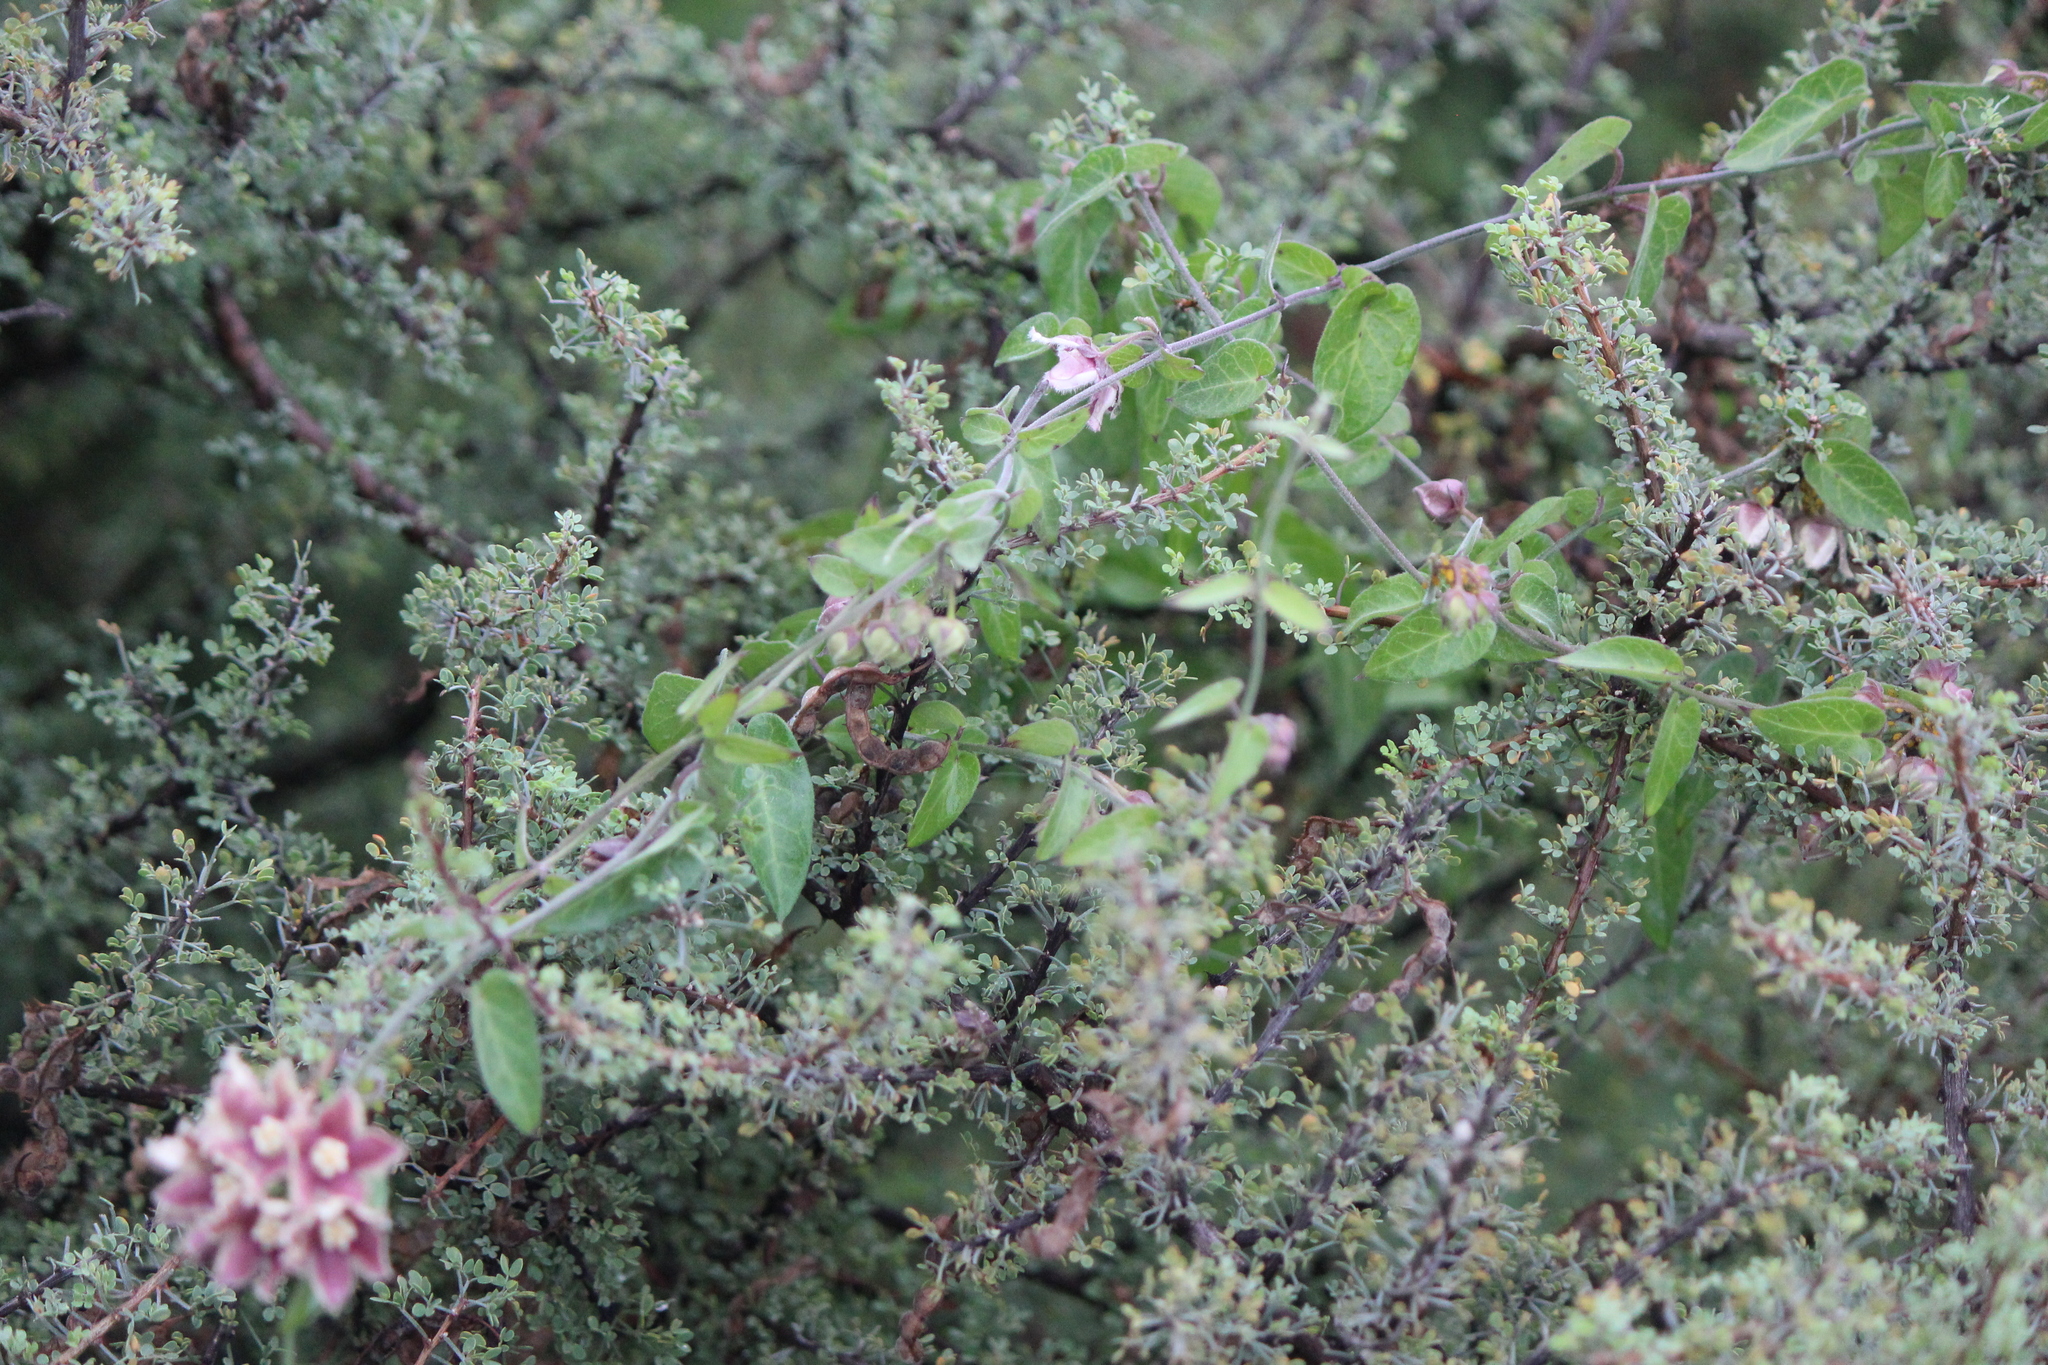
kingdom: Plantae
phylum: Tracheophyta
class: Magnoliopsida
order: Gentianales
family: Apocynaceae
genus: Funastrum
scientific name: Funastrum elegans
